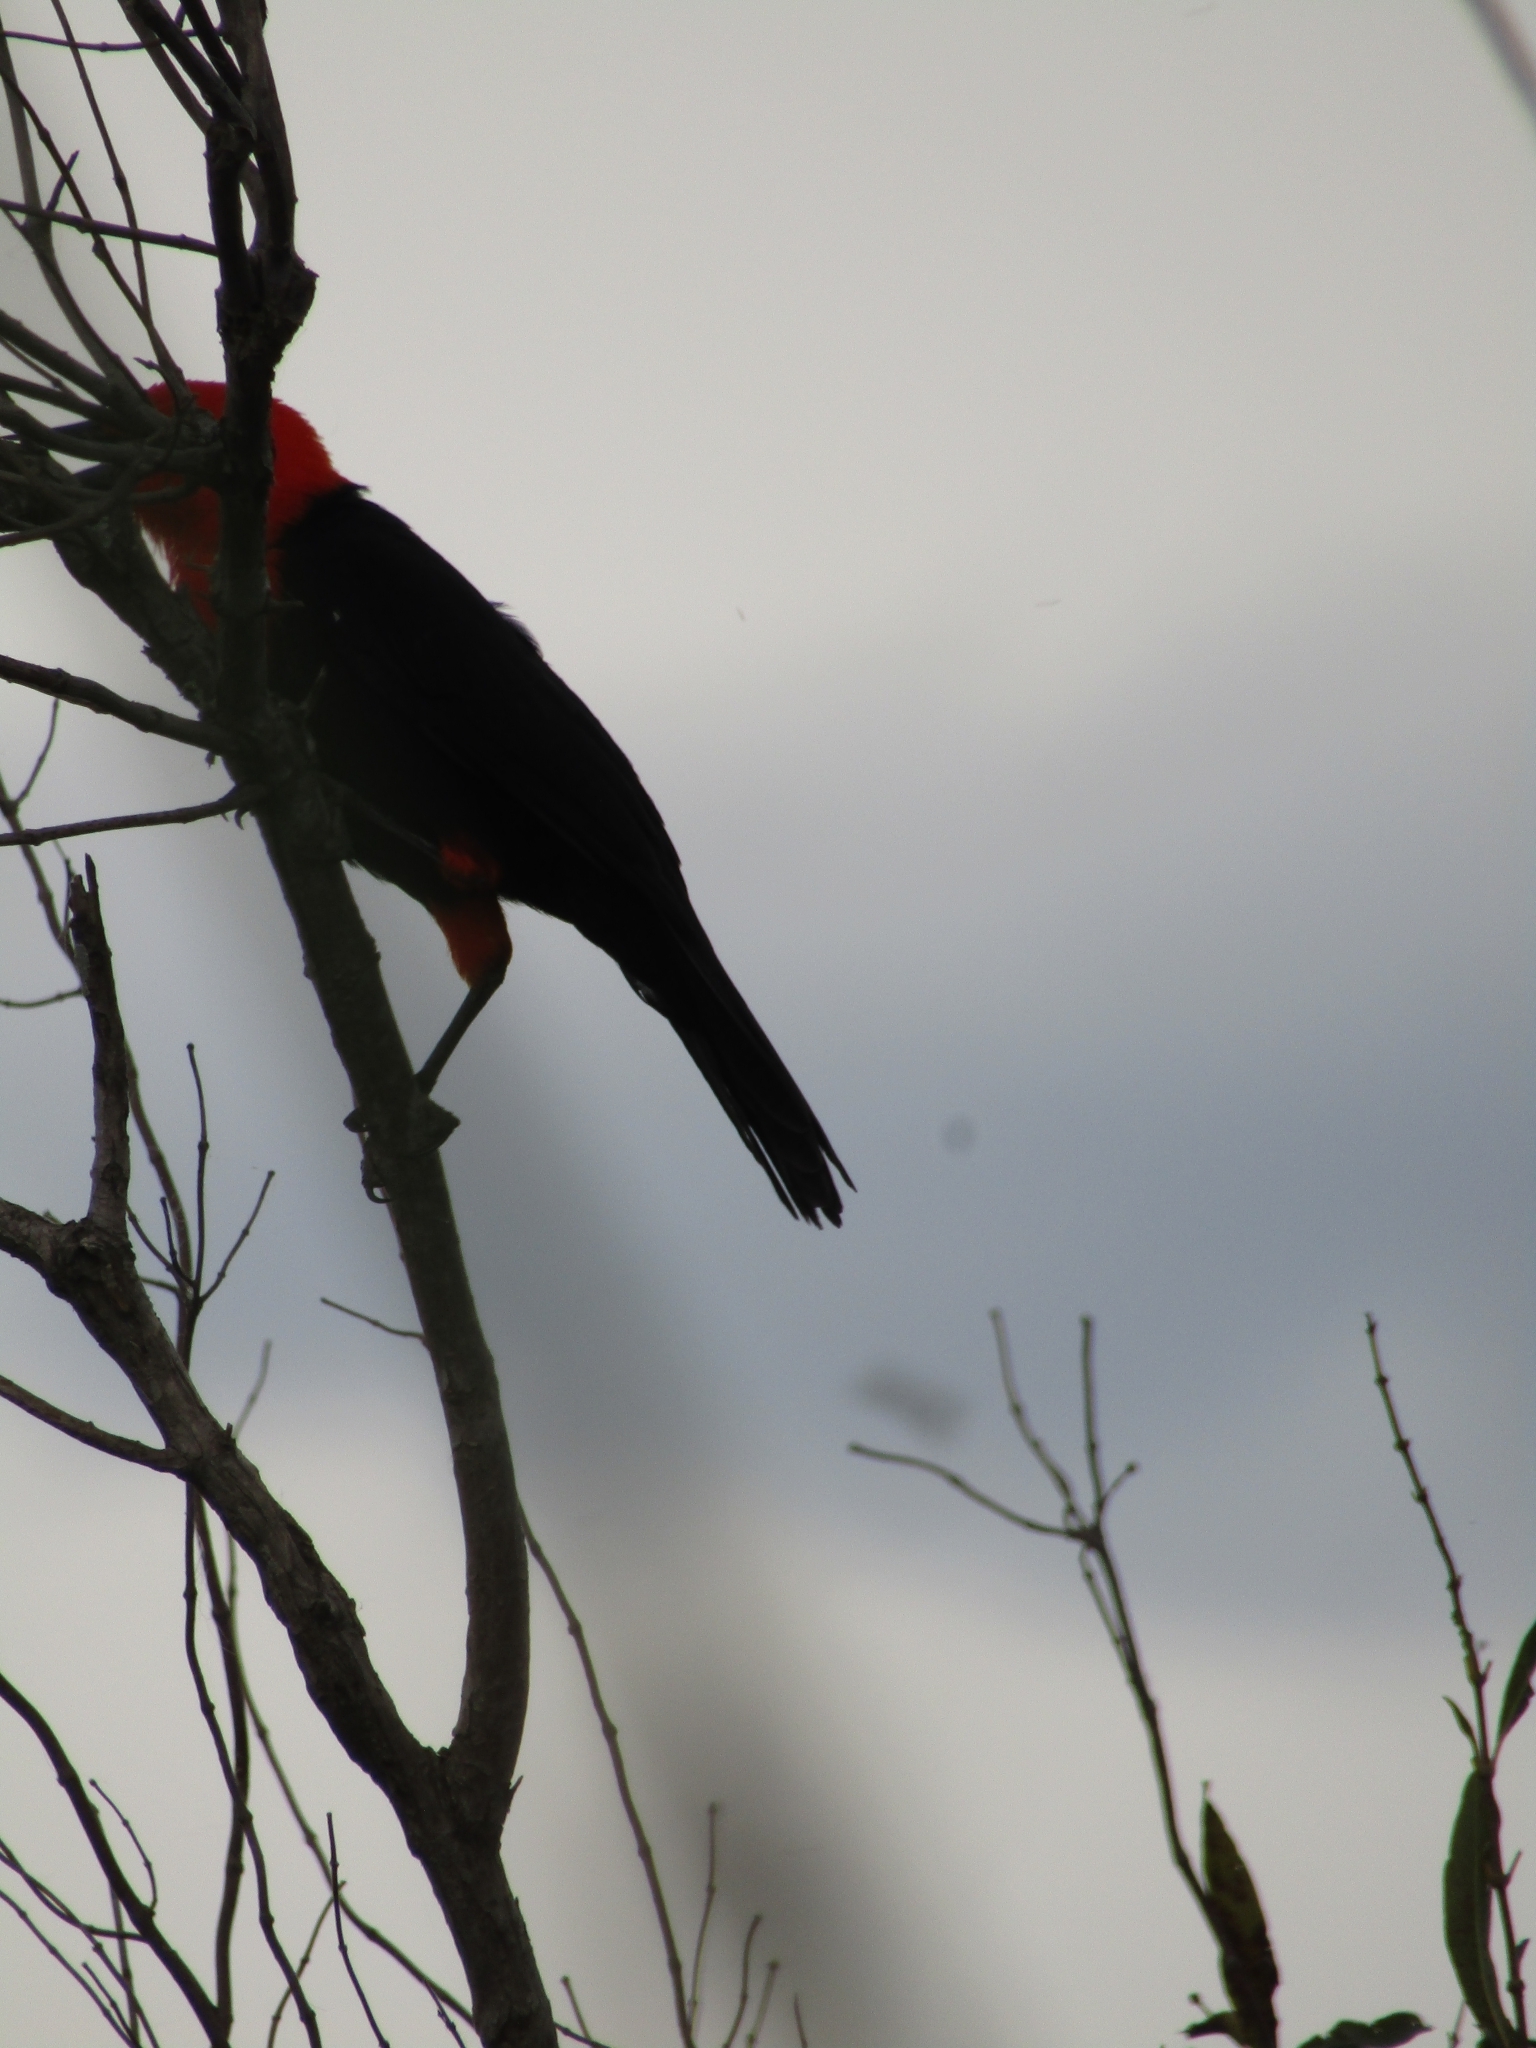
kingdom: Animalia
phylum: Chordata
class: Aves
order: Passeriformes
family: Icteridae
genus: Amblyramphus
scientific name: Amblyramphus holosericeus
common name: Scarlet-headed blackbird
